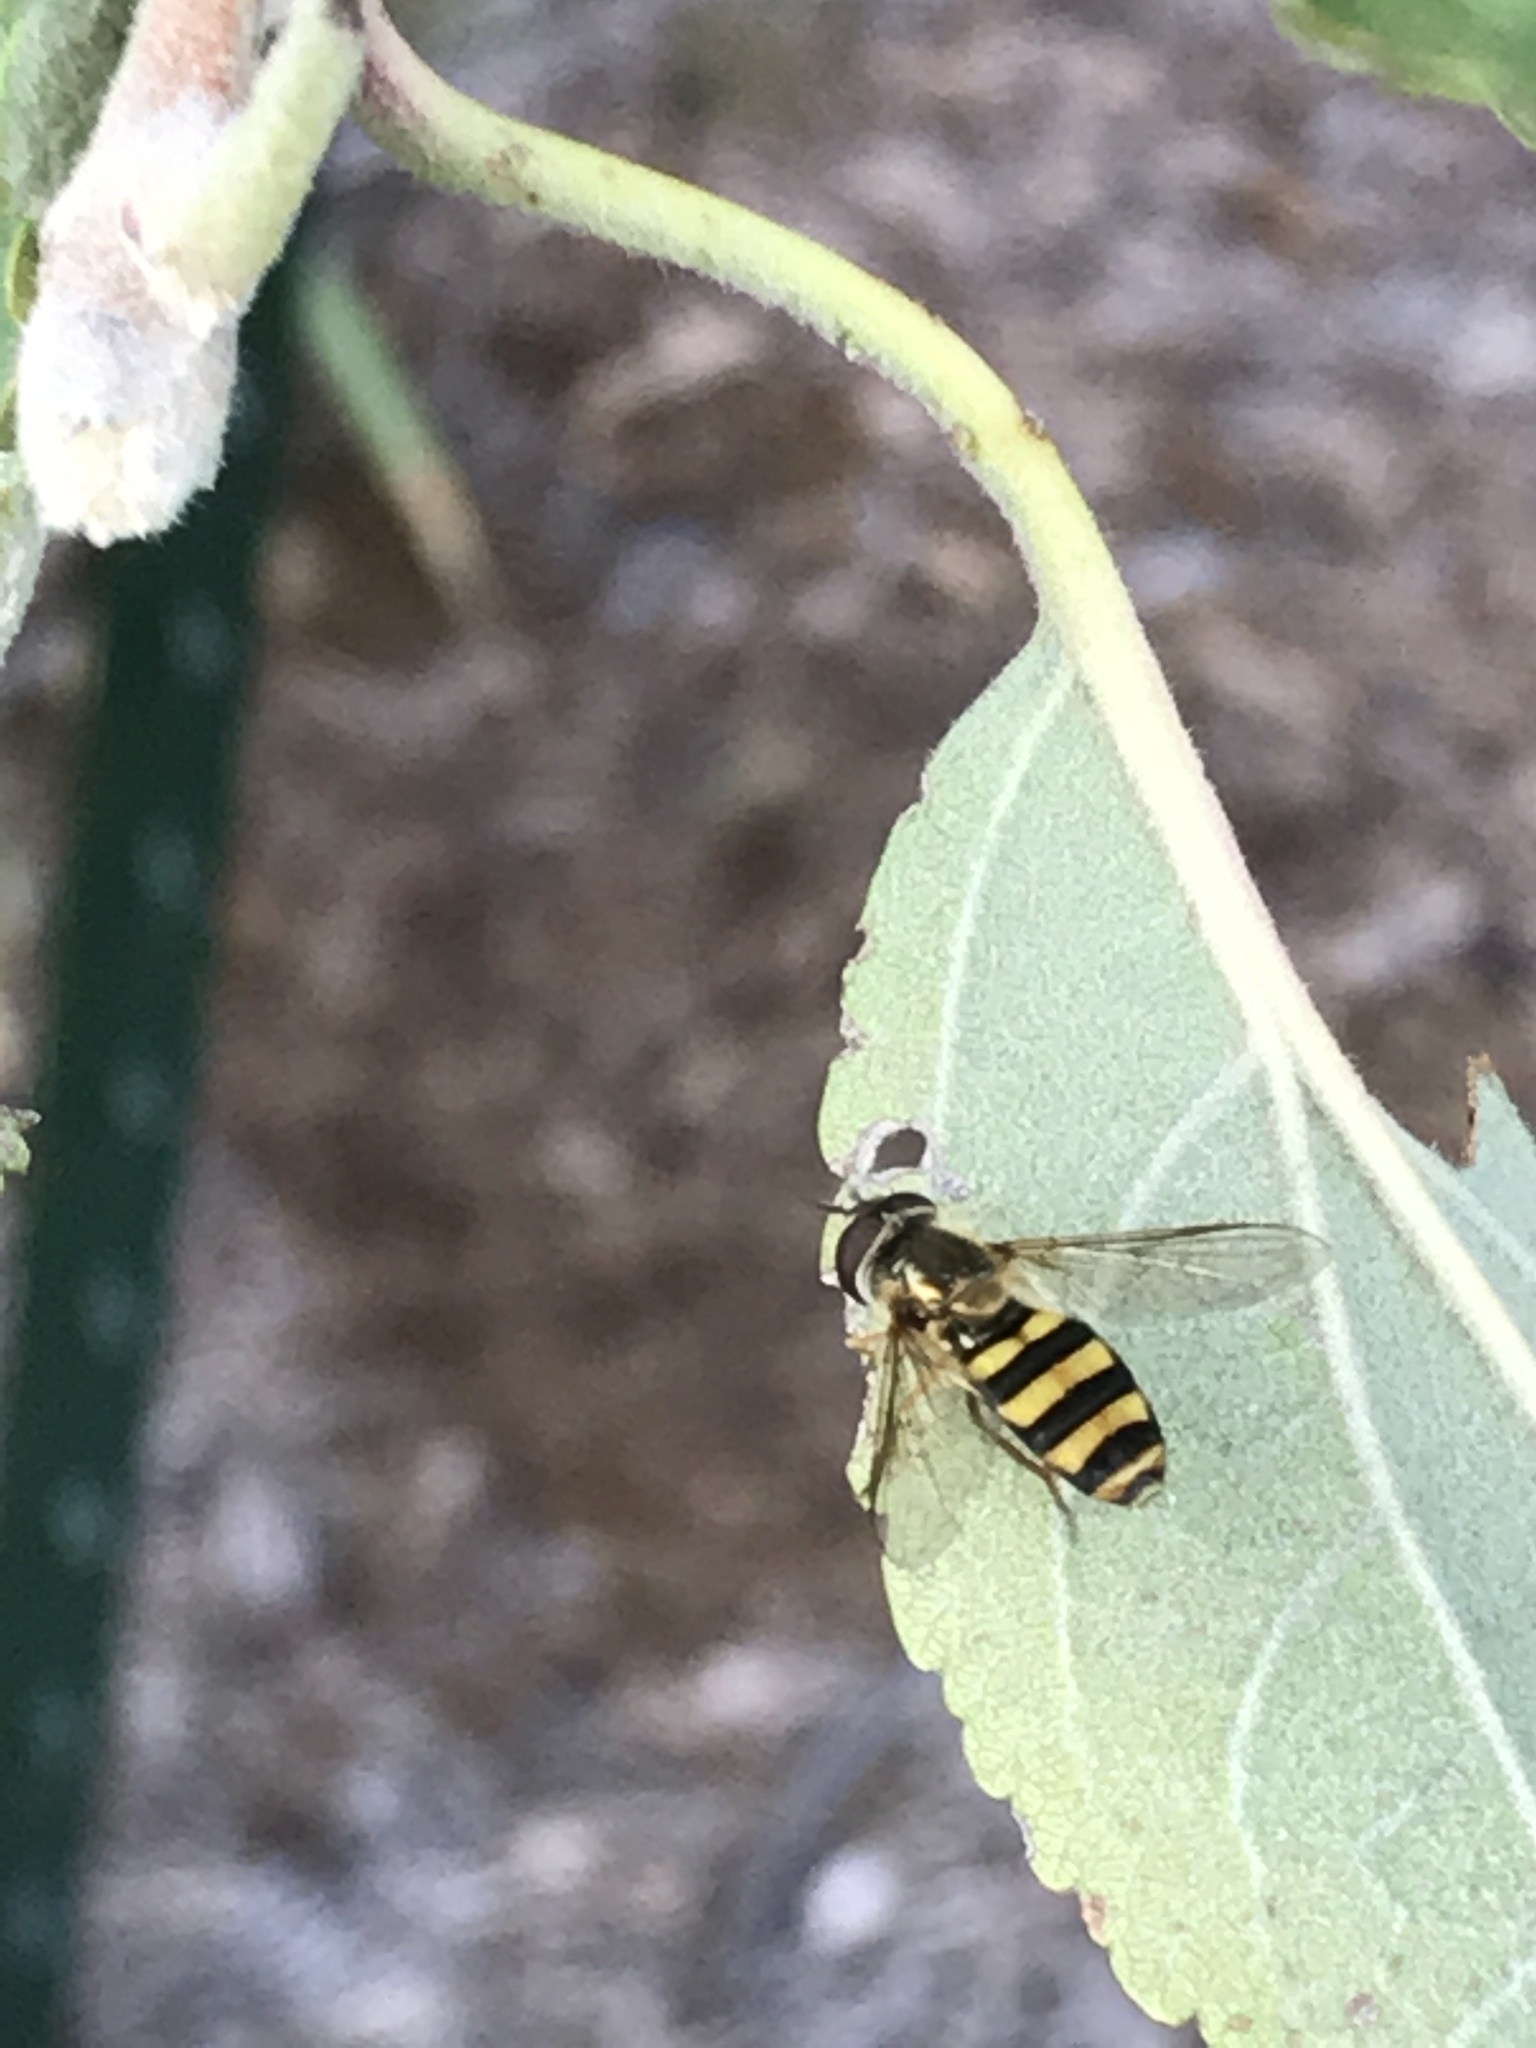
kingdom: Animalia
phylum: Arthropoda
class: Insecta
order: Diptera
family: Syrphidae
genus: Eupeodes
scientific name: Eupeodes
